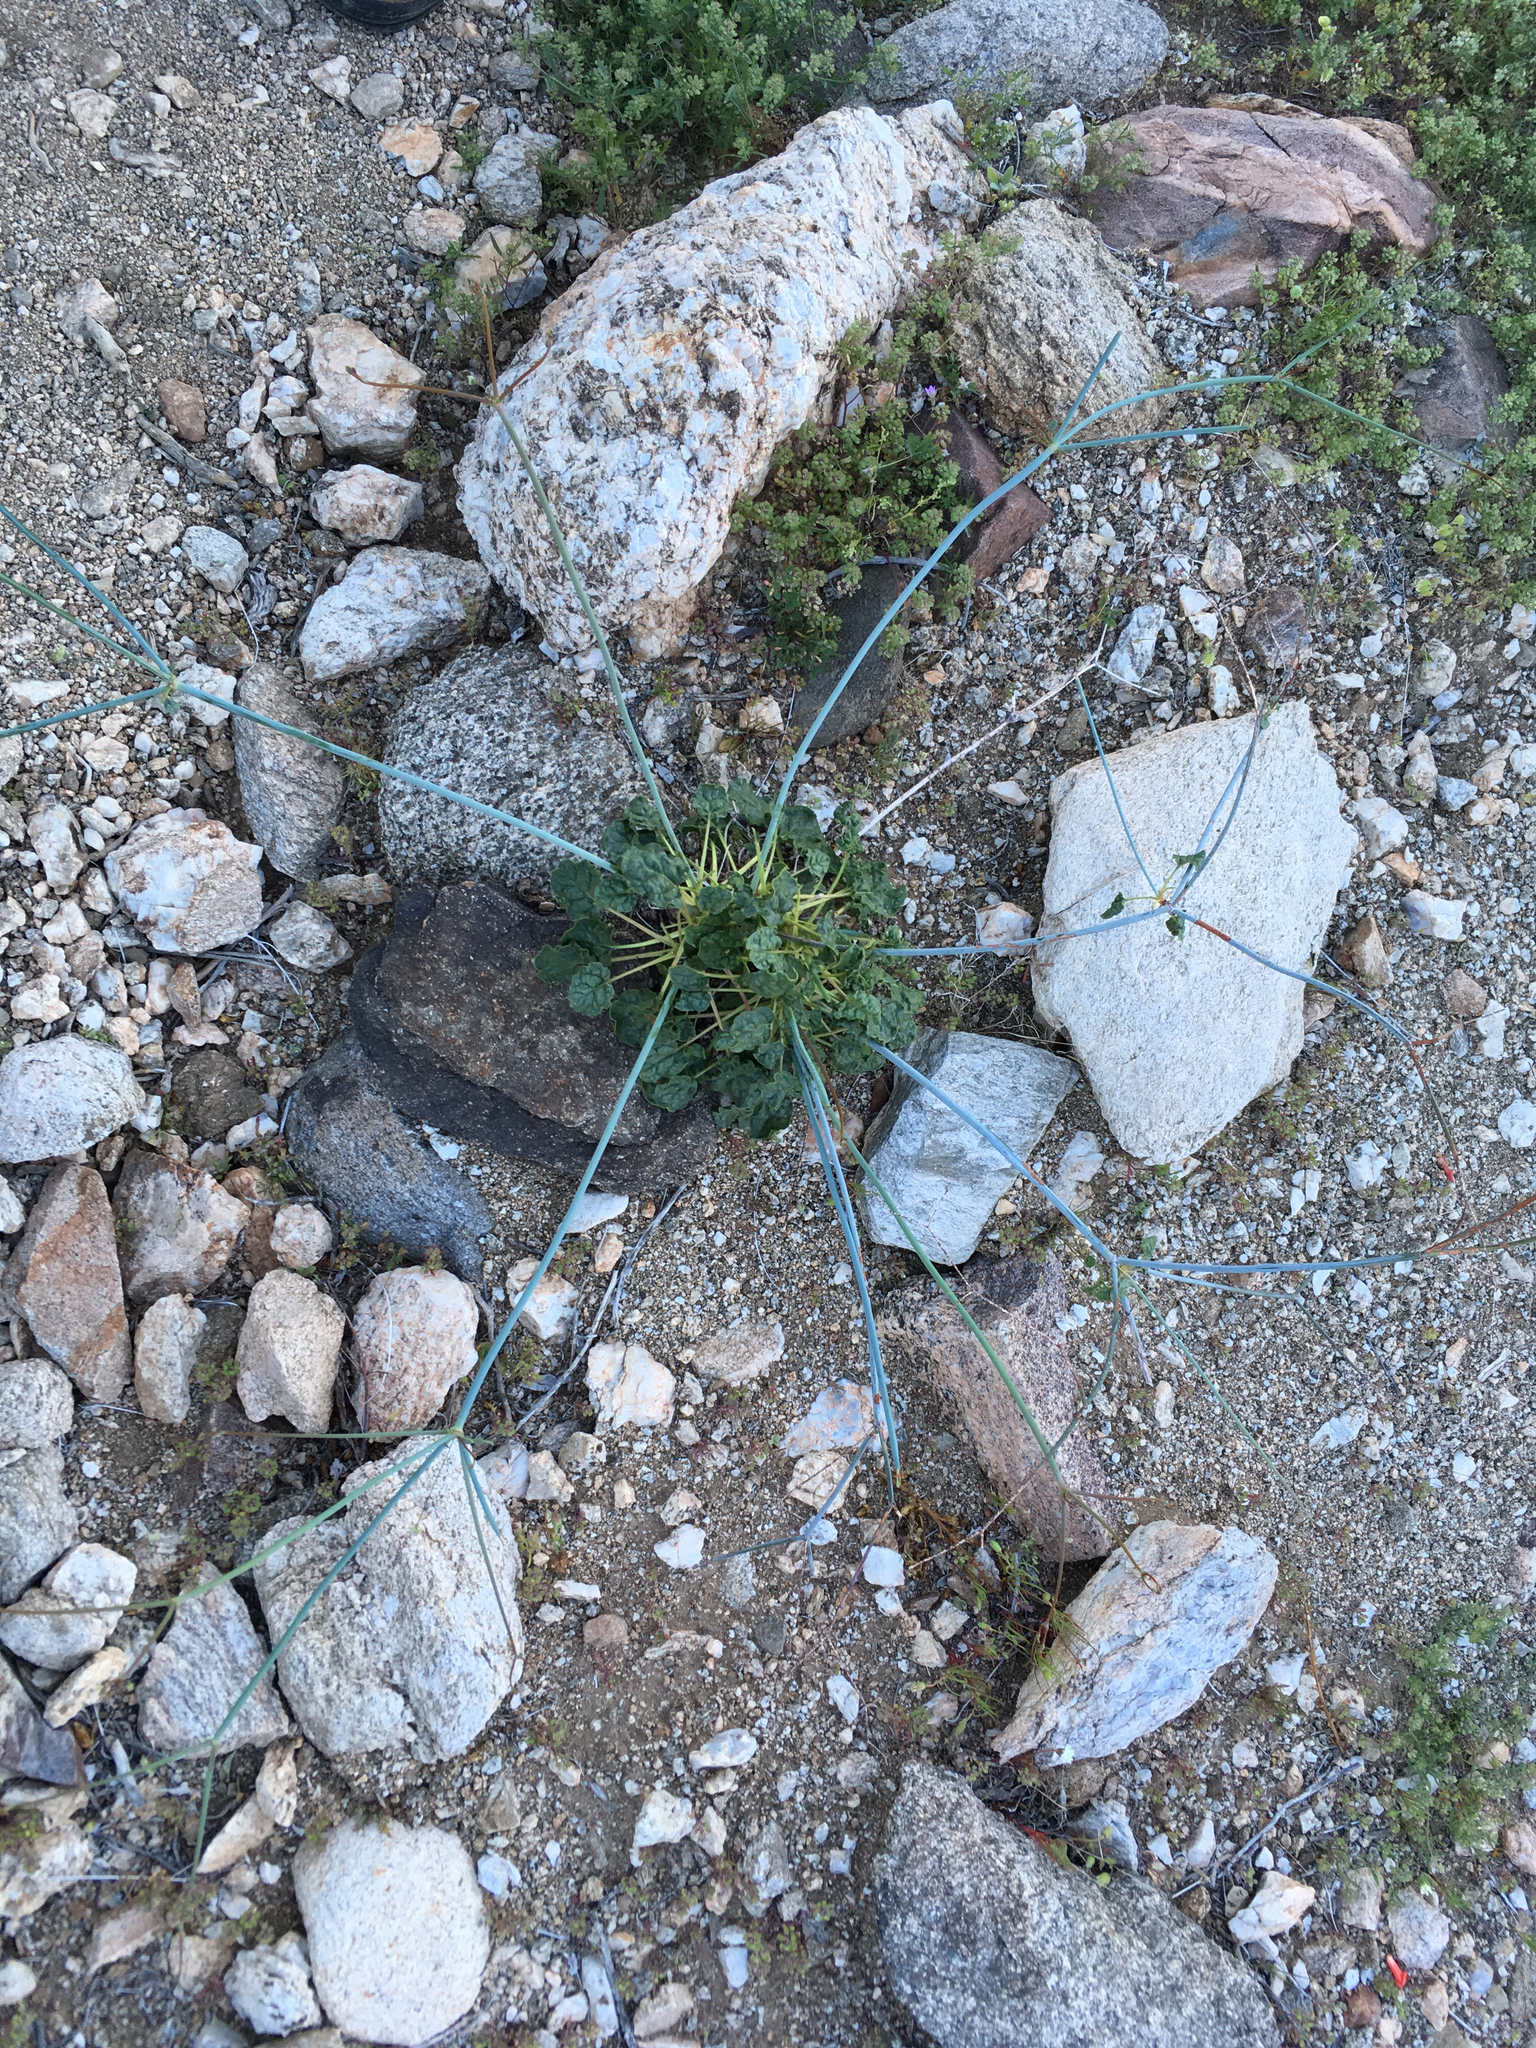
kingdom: Plantae
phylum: Tracheophyta
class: Magnoliopsida
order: Caryophyllales
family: Polygonaceae
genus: Eriogonum
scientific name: Eriogonum inflatum
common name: Desert trumpet
